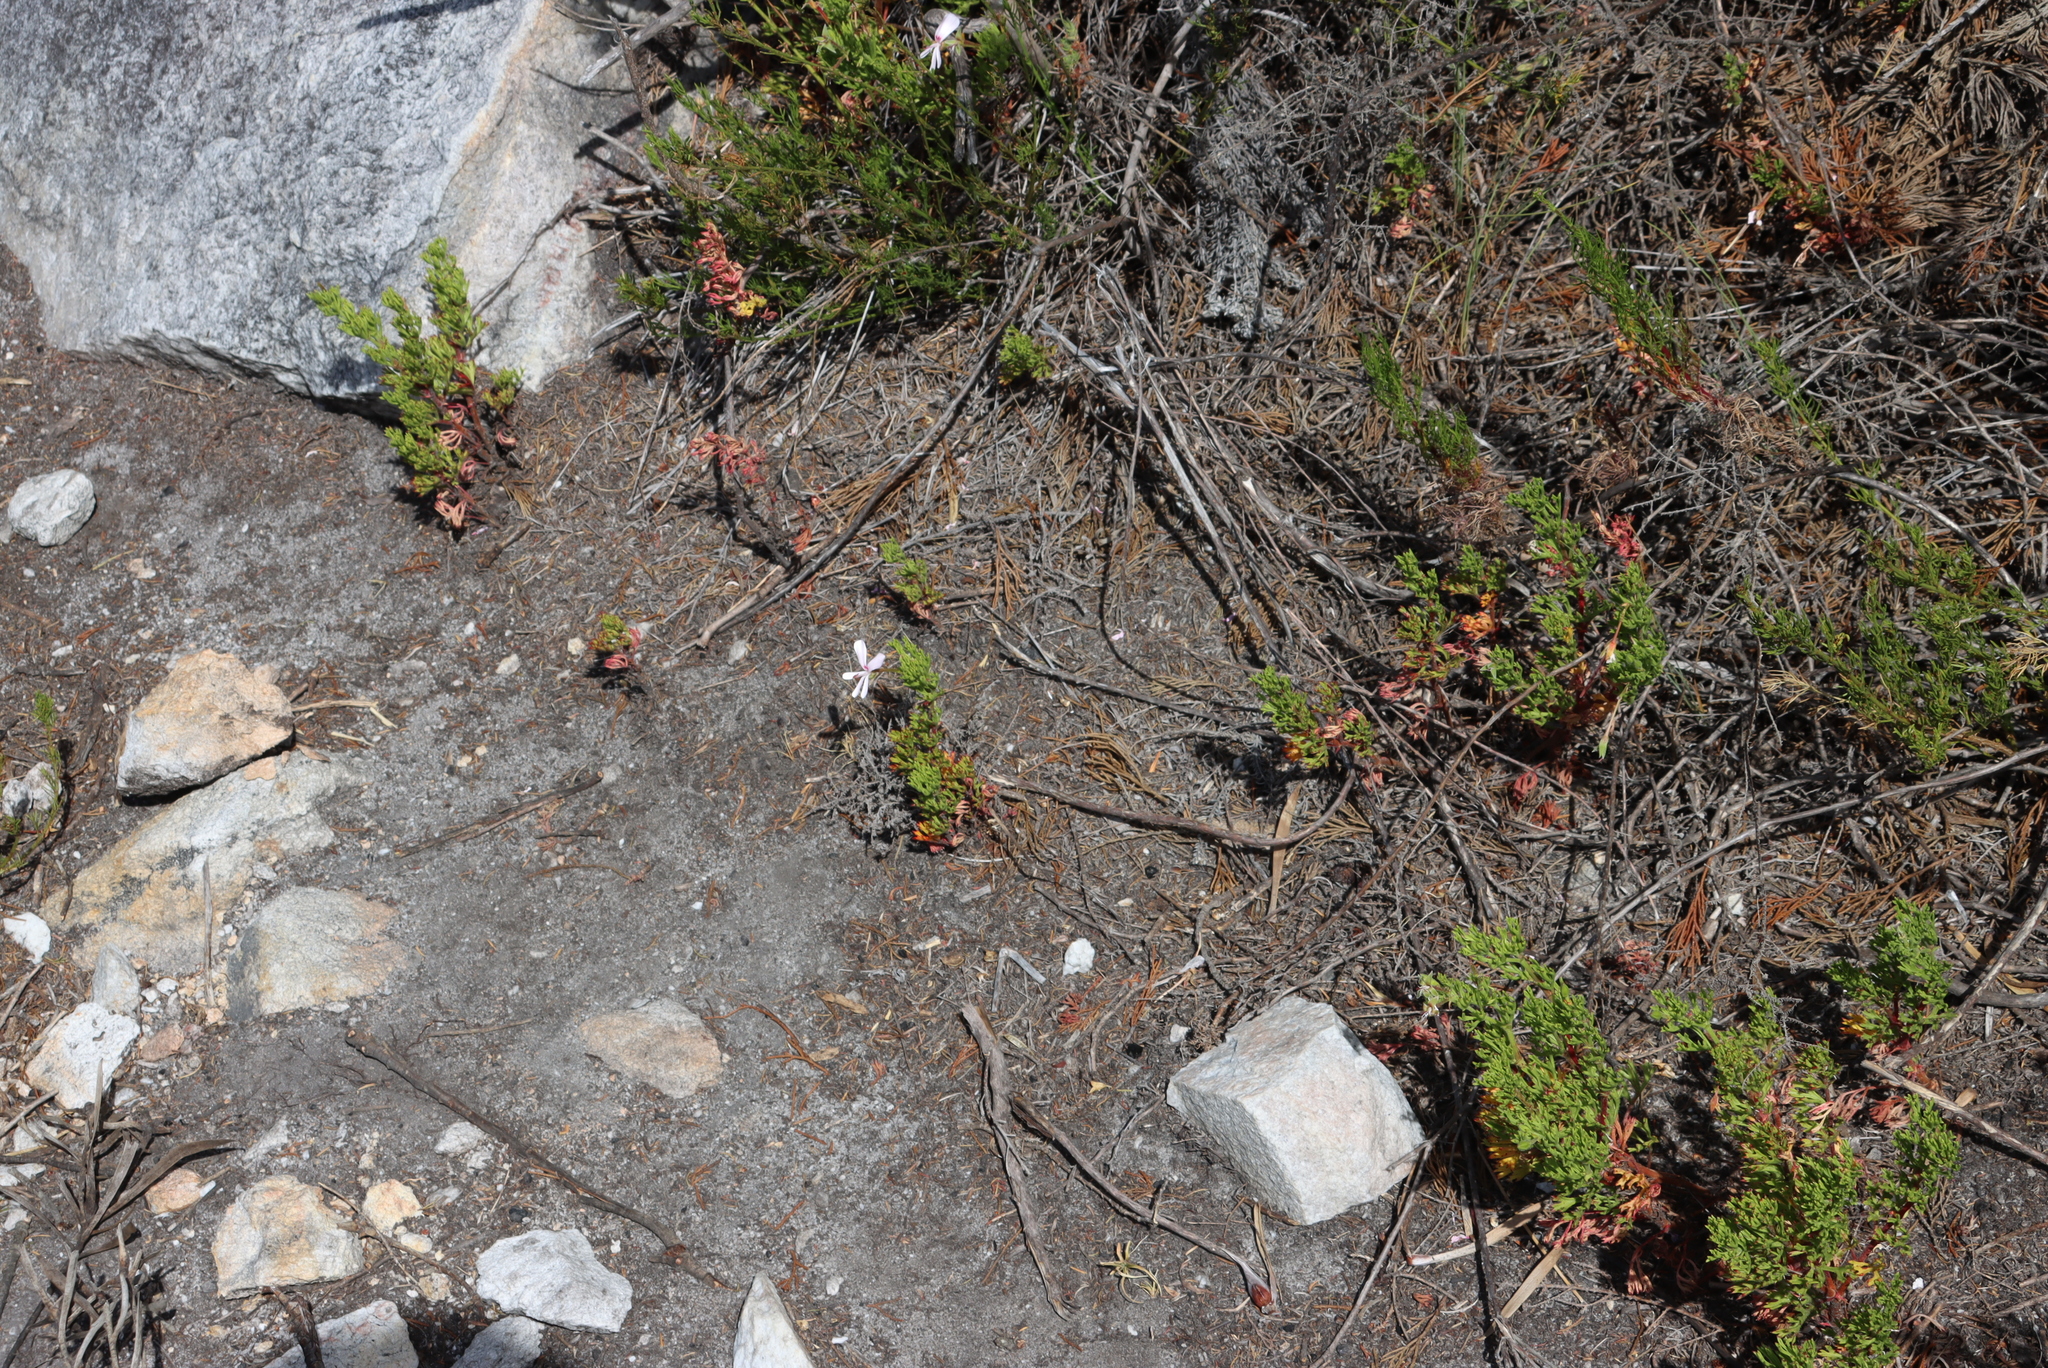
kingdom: Plantae
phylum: Tracheophyta
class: Magnoliopsida
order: Geraniales
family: Geraniaceae
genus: Pelargonium
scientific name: Pelargonium ternatum
